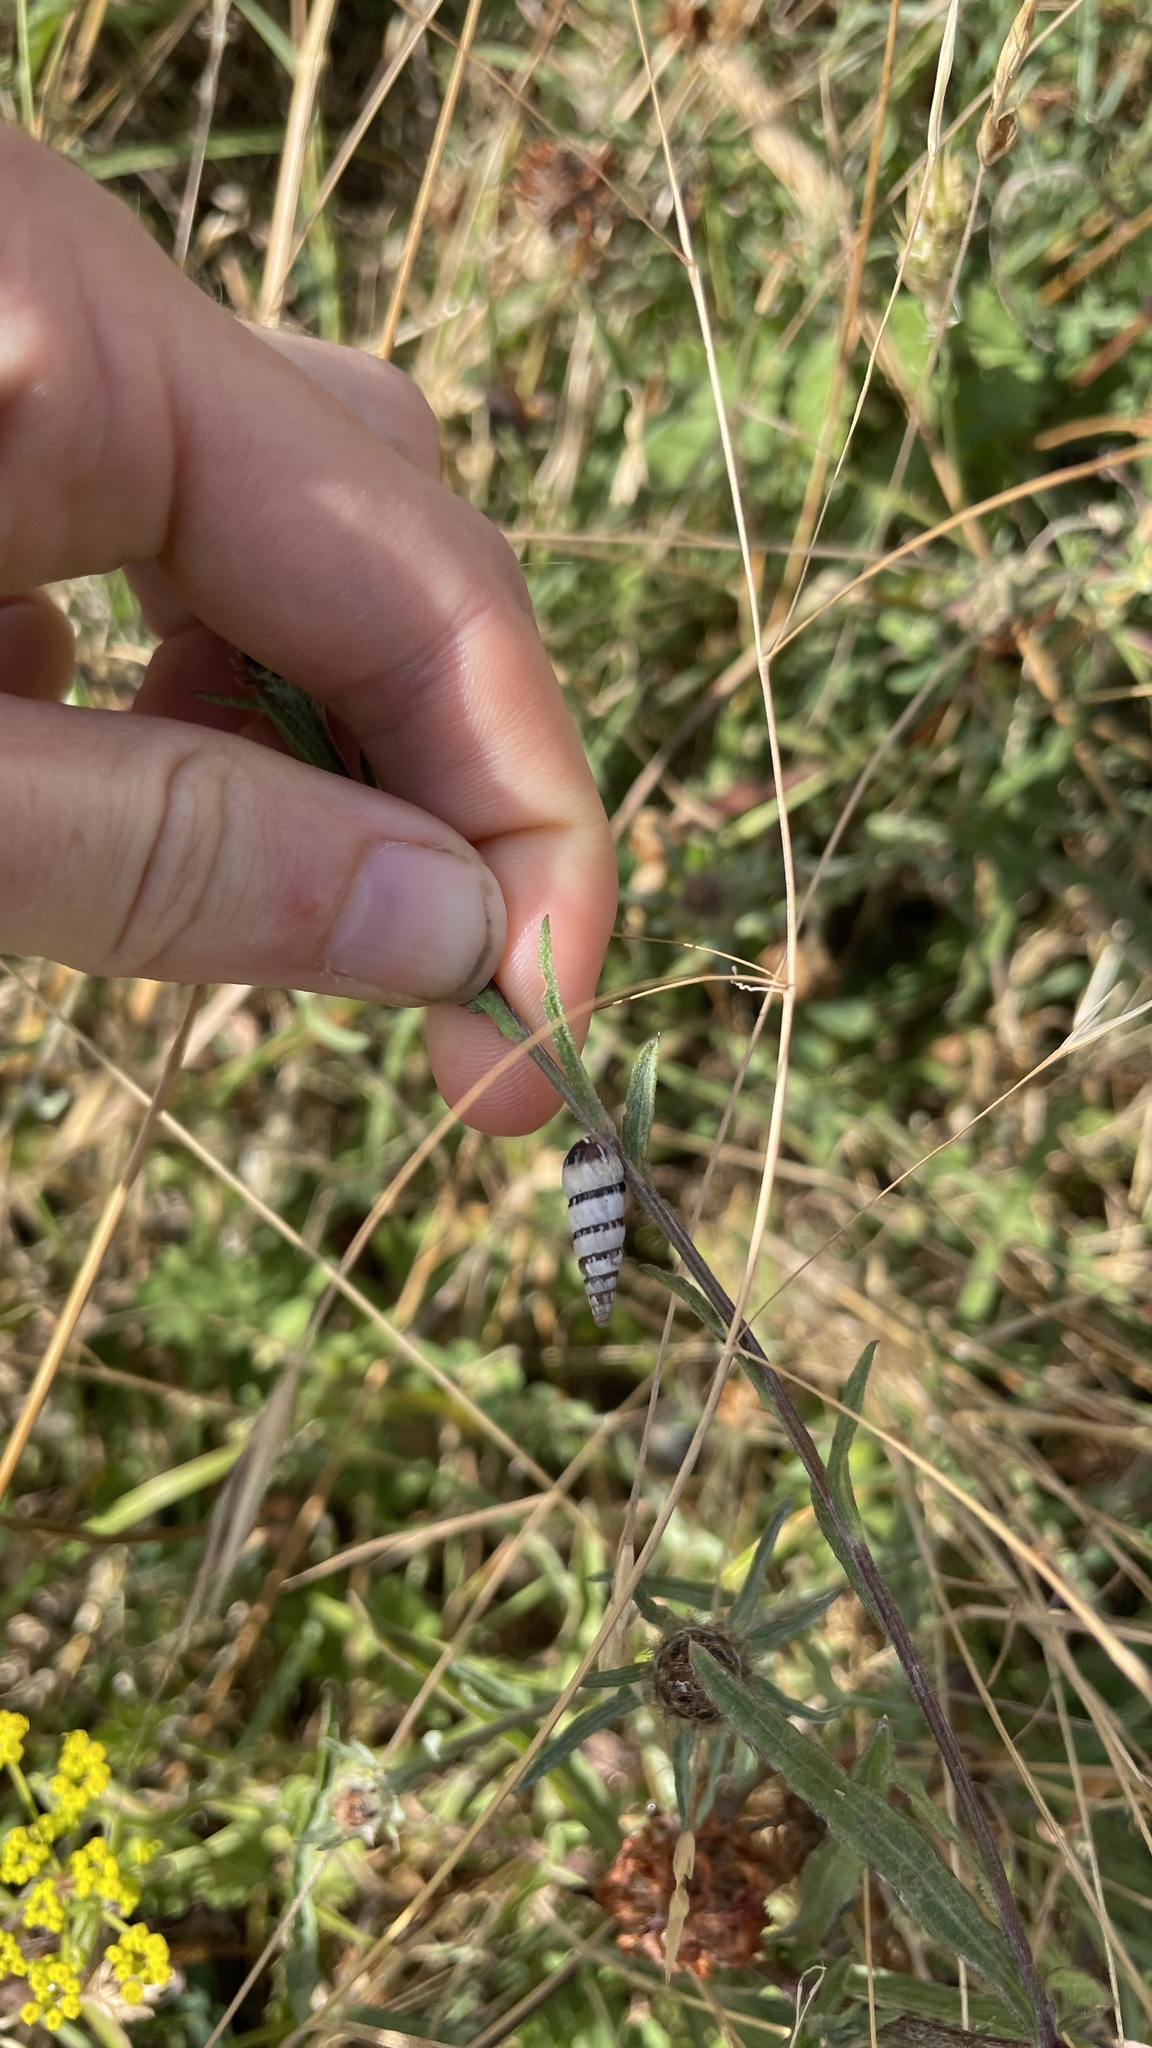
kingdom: Animalia
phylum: Mollusca
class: Gastropoda
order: Stylommatophora
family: Geomitridae
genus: Cochlicella
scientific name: Cochlicella acuta
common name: Pointed snail
